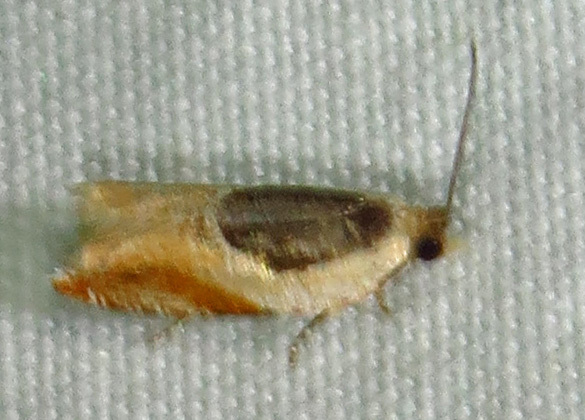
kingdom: Animalia
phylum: Arthropoda
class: Insecta
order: Lepidoptera
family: Tortricidae
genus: Ancylis
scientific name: Ancylis burgessiana
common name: Oak leaffolder moth
